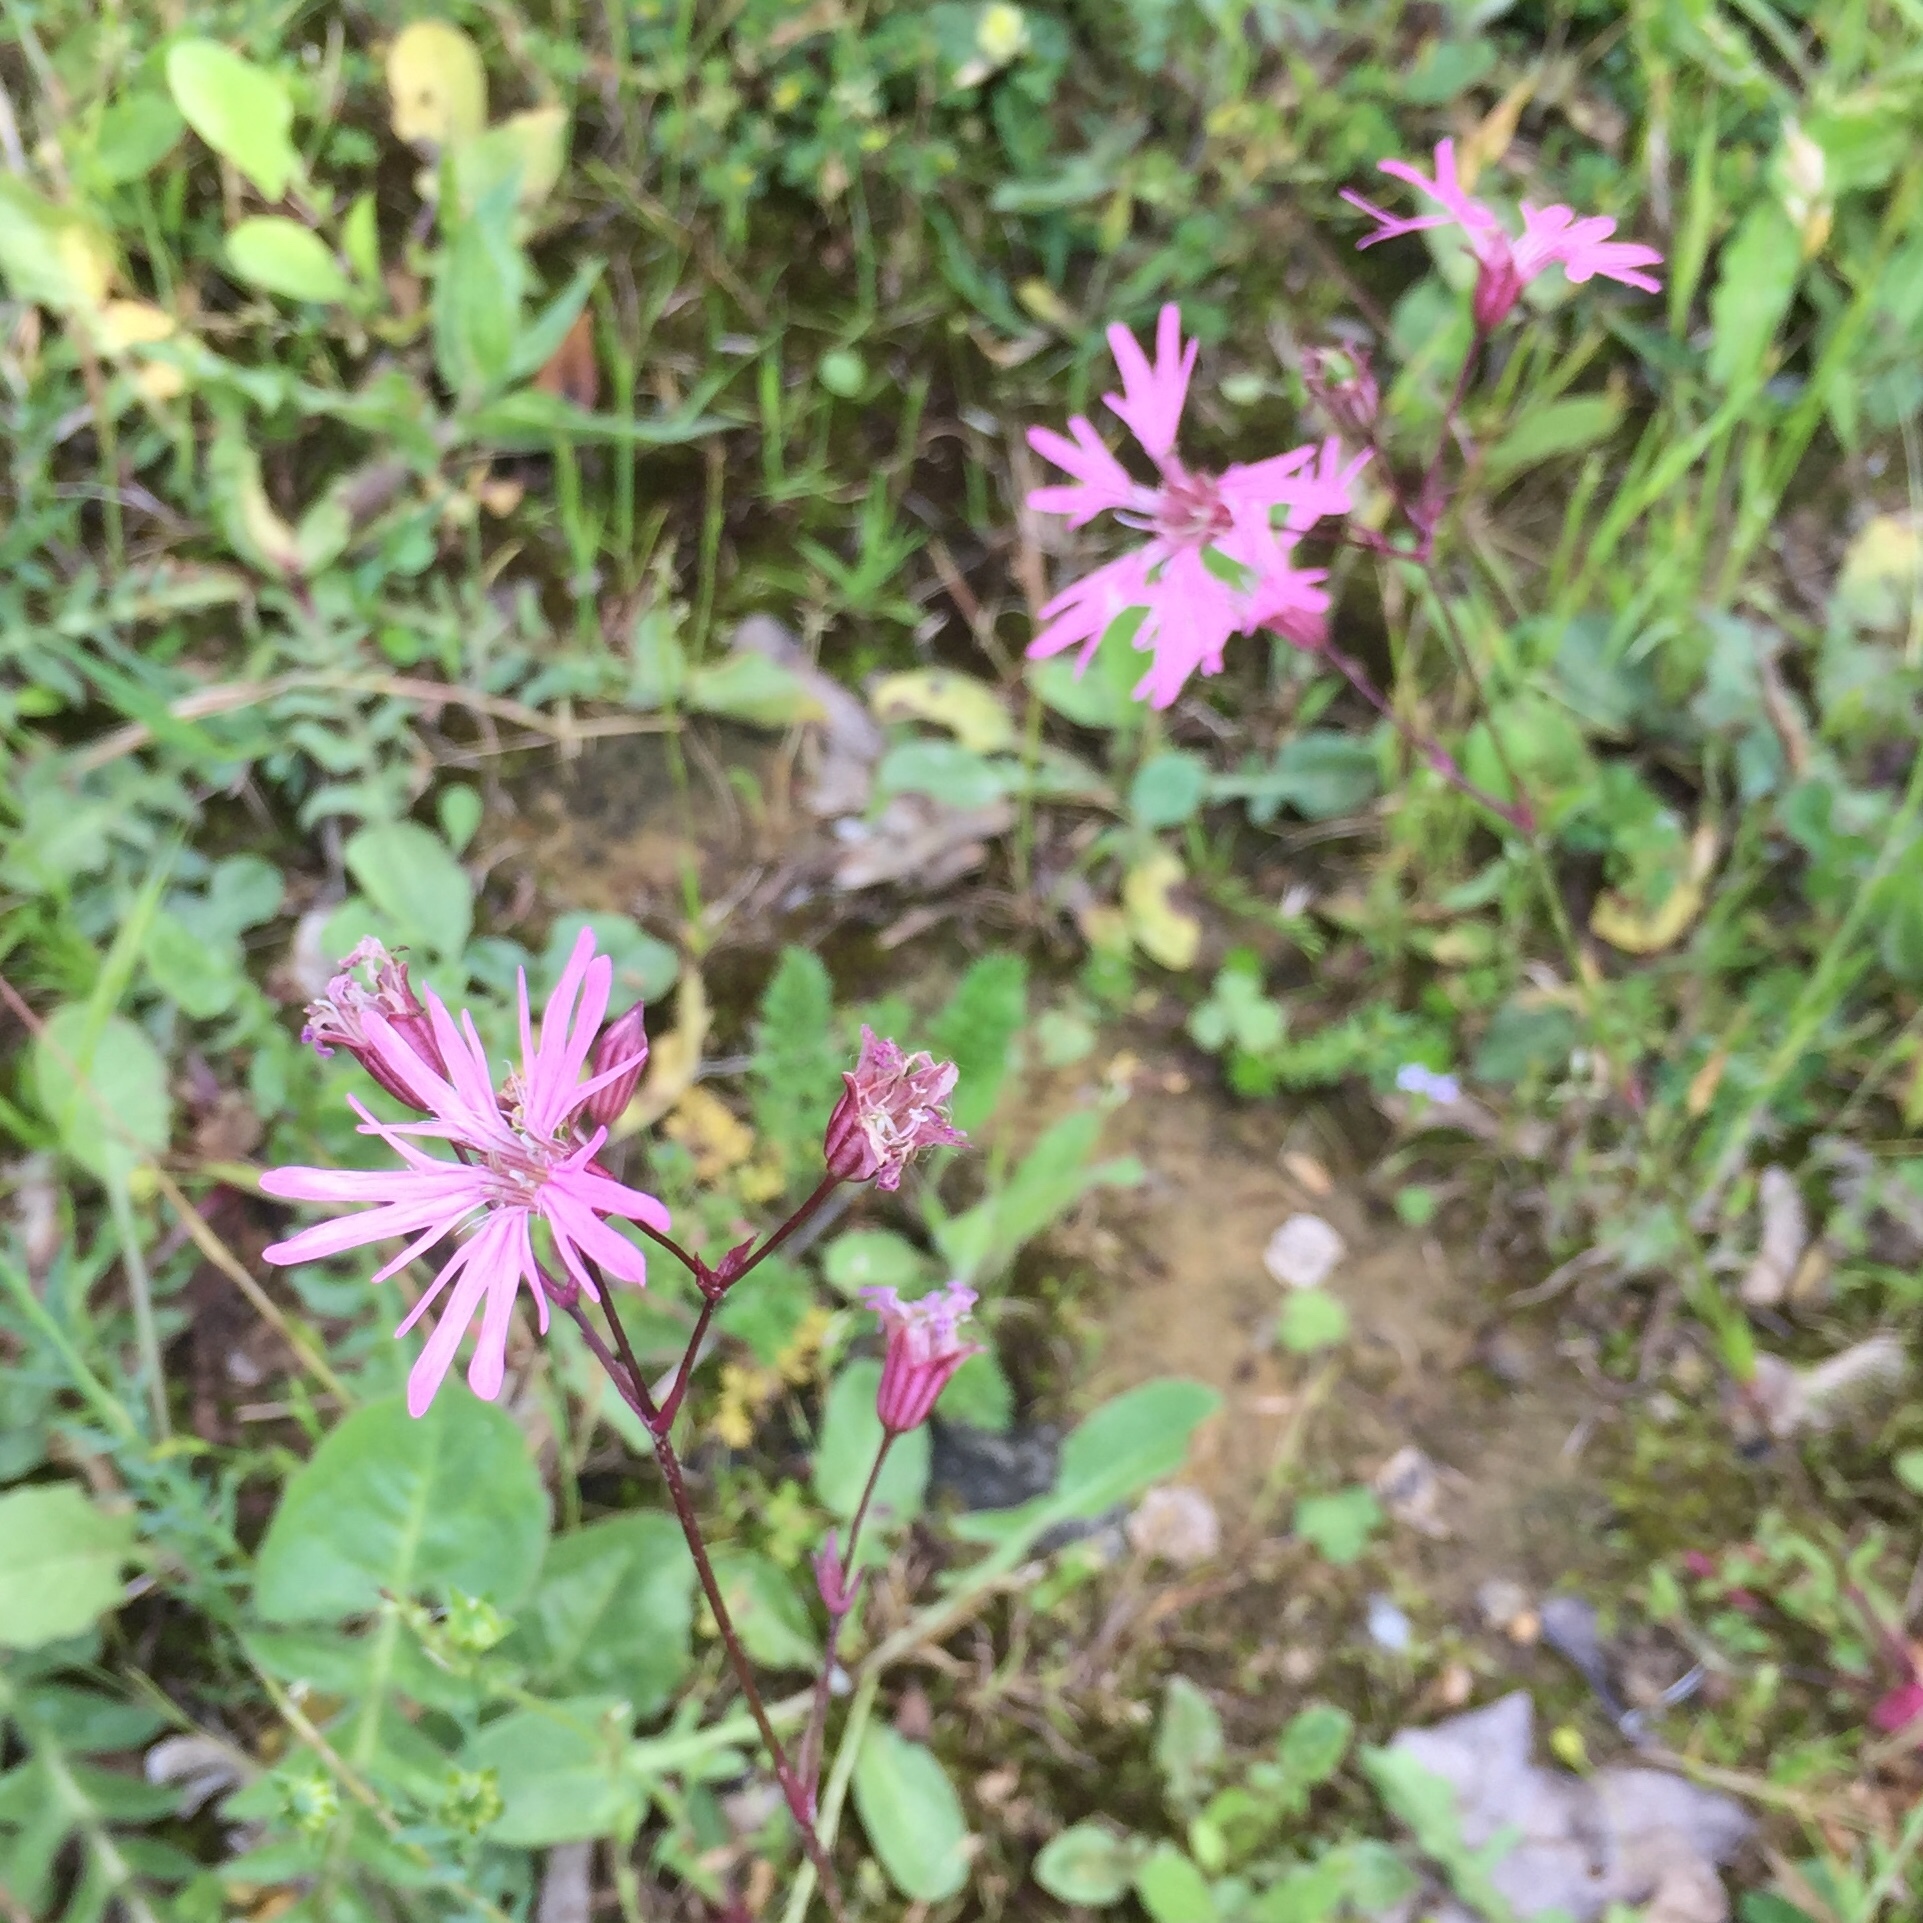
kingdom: Plantae
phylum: Tracheophyta
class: Magnoliopsida
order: Caryophyllales
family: Caryophyllaceae
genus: Silene
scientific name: Silene flos-cuculi
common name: Ragged-robin
